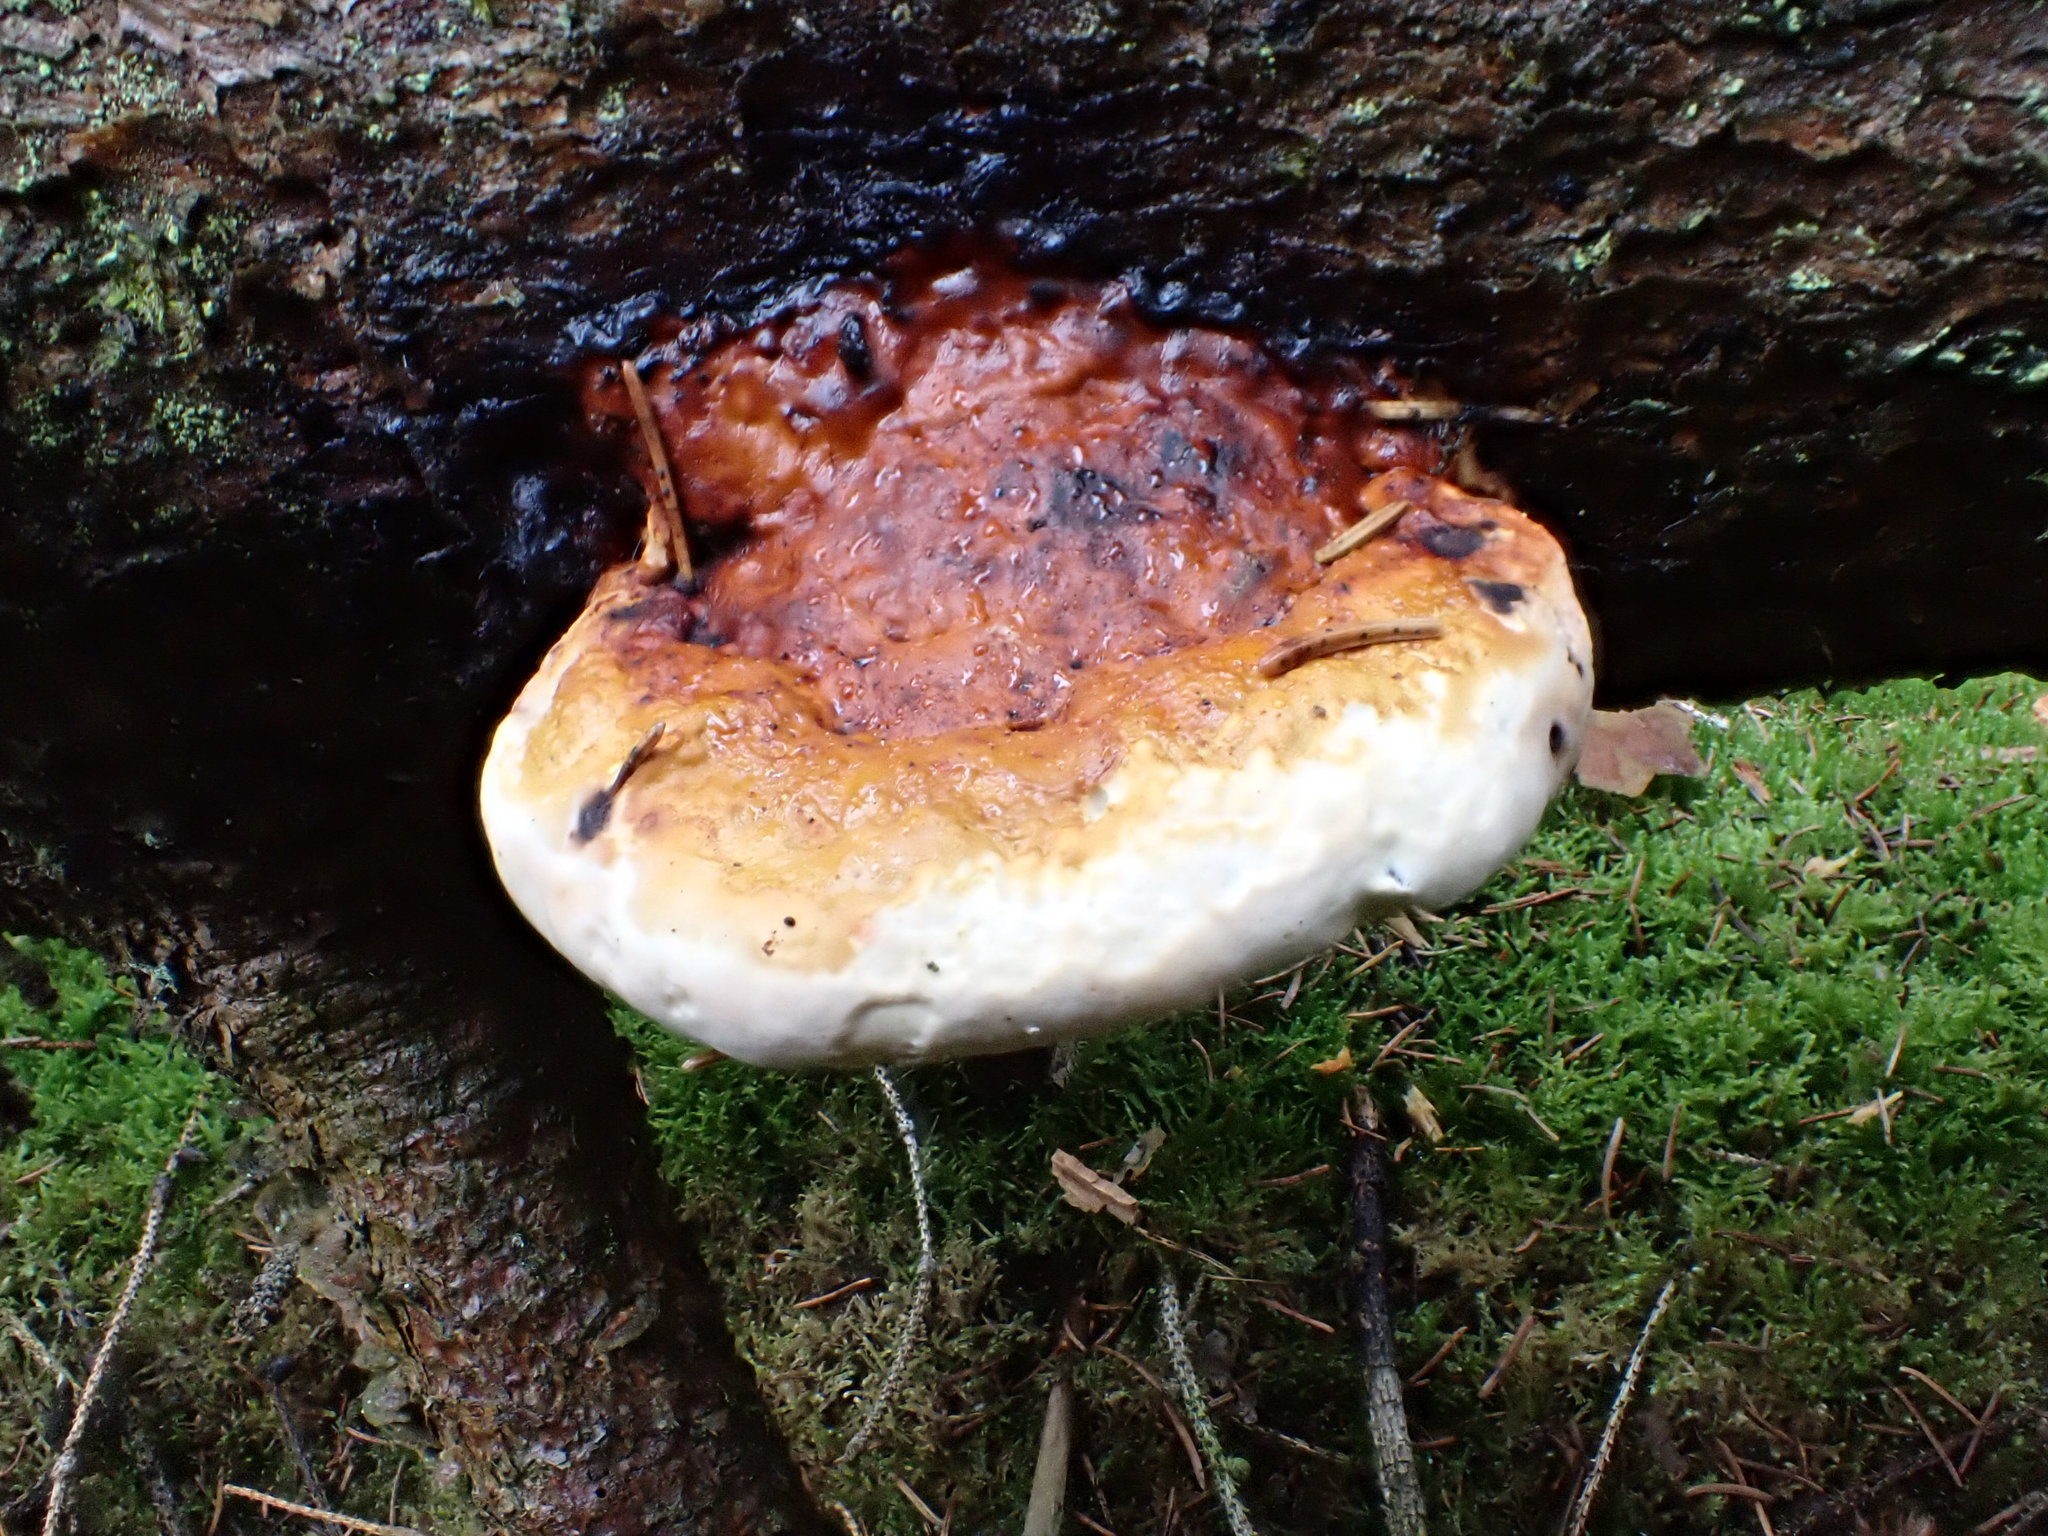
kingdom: Fungi
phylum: Basidiomycota
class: Agaricomycetes
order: Polyporales
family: Fomitopsidaceae
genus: Fomitopsis
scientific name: Fomitopsis pinicola
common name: Red-belted bracket
